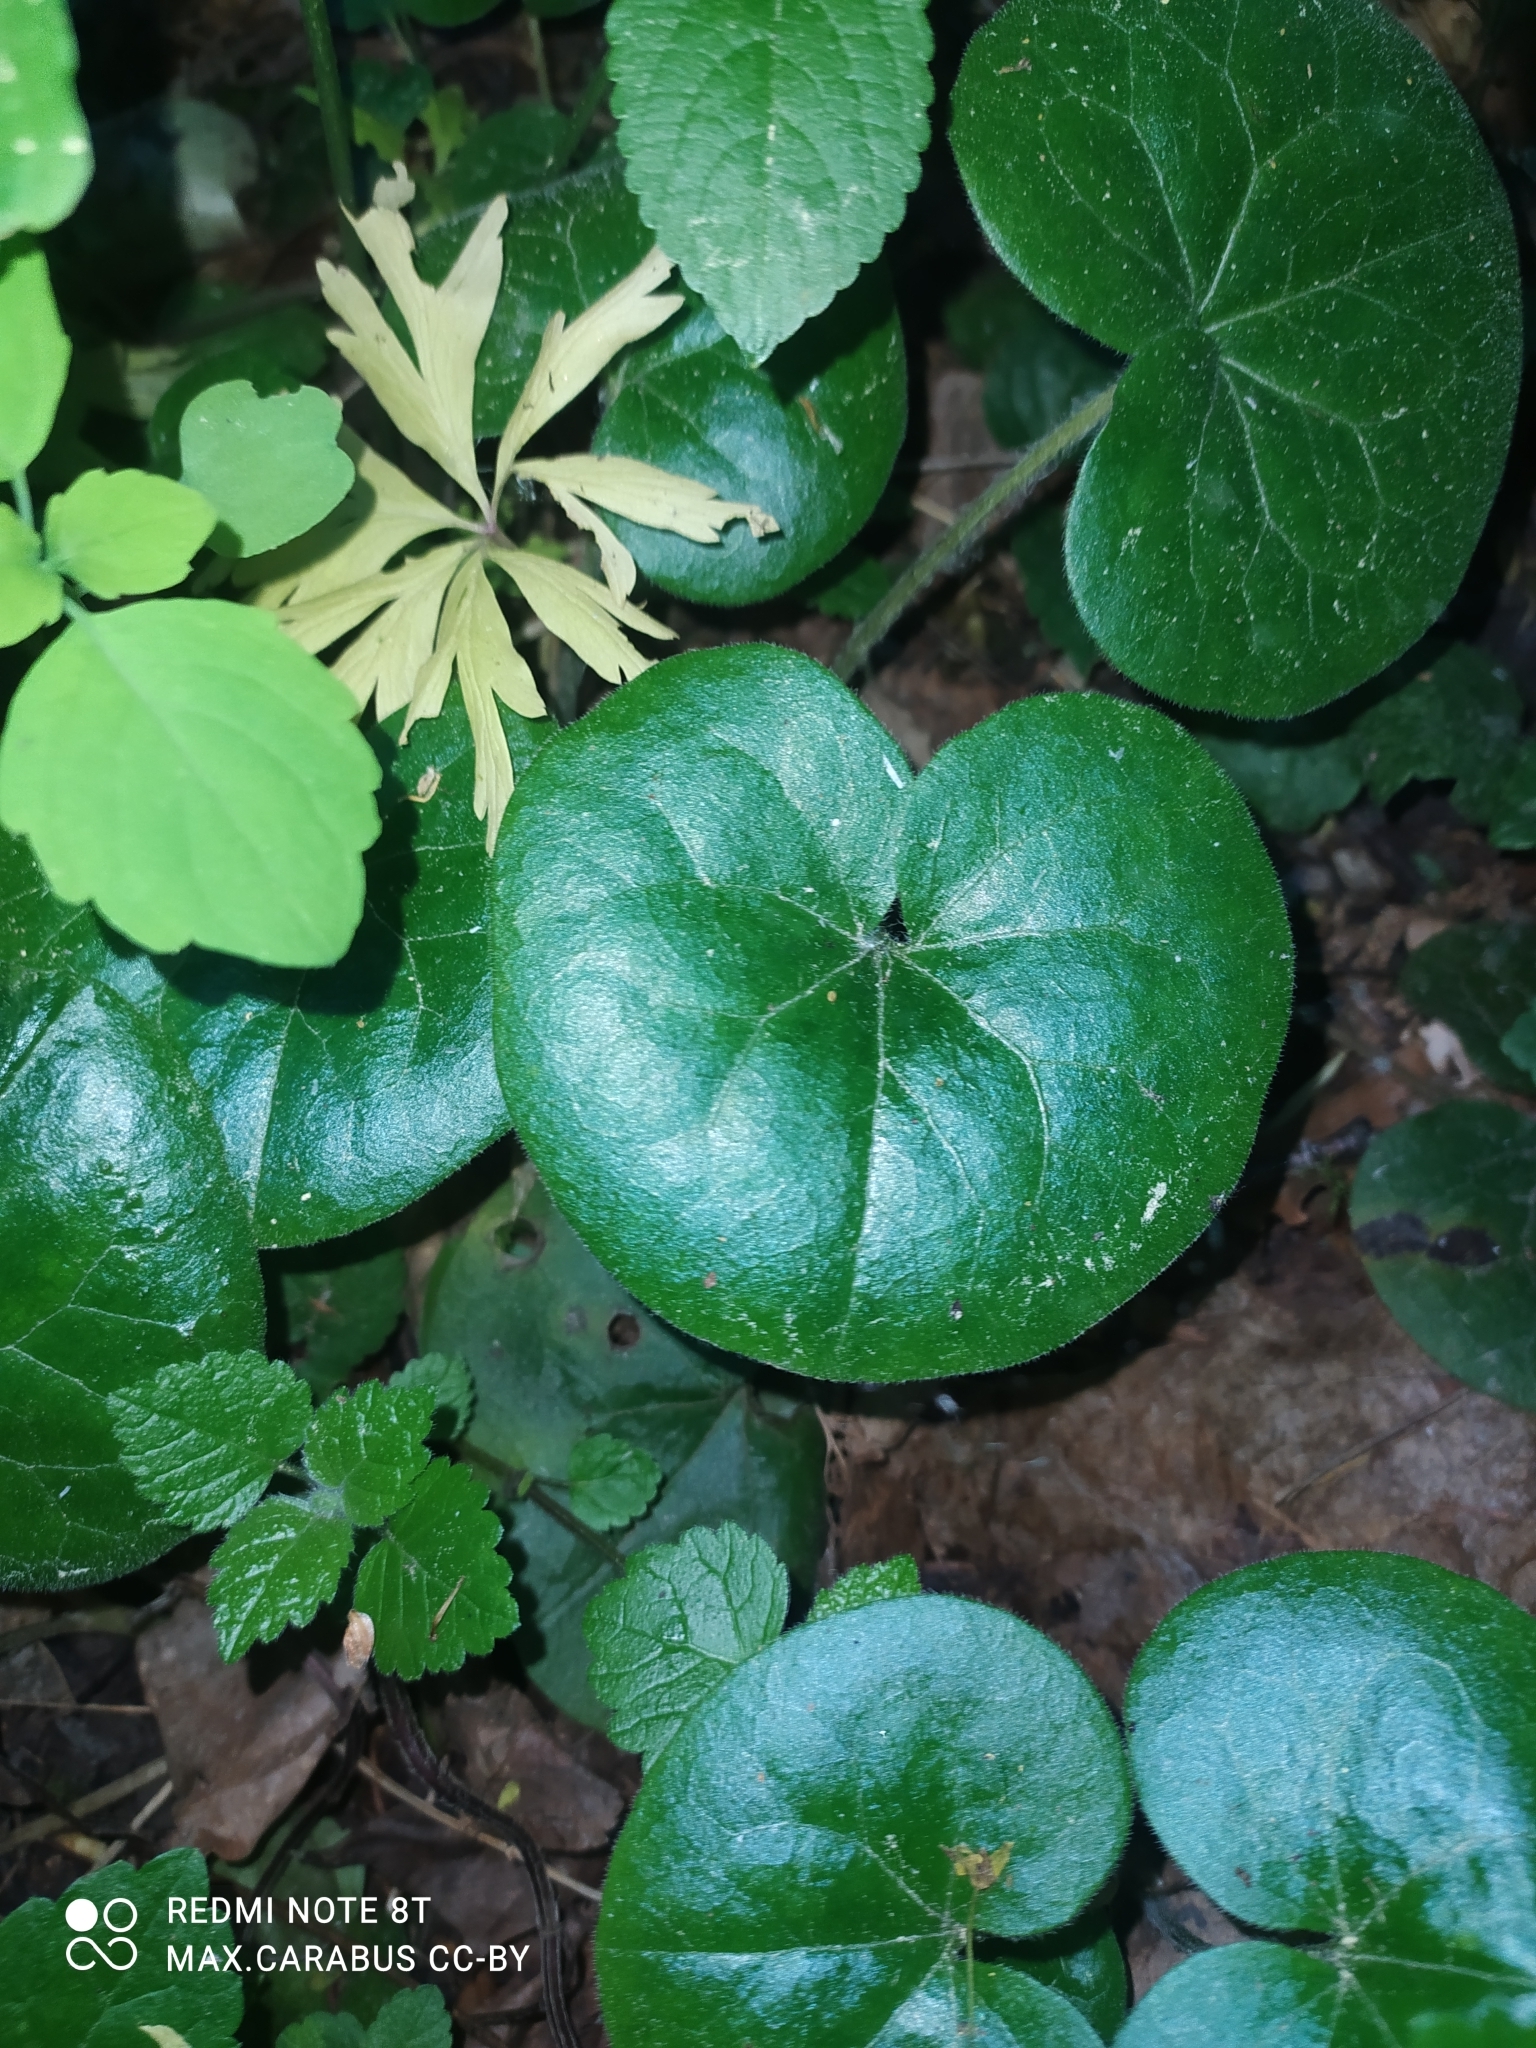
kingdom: Plantae
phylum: Tracheophyta
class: Magnoliopsida
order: Piperales
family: Aristolochiaceae
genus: Asarum
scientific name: Asarum europaeum
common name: Asarabacca
